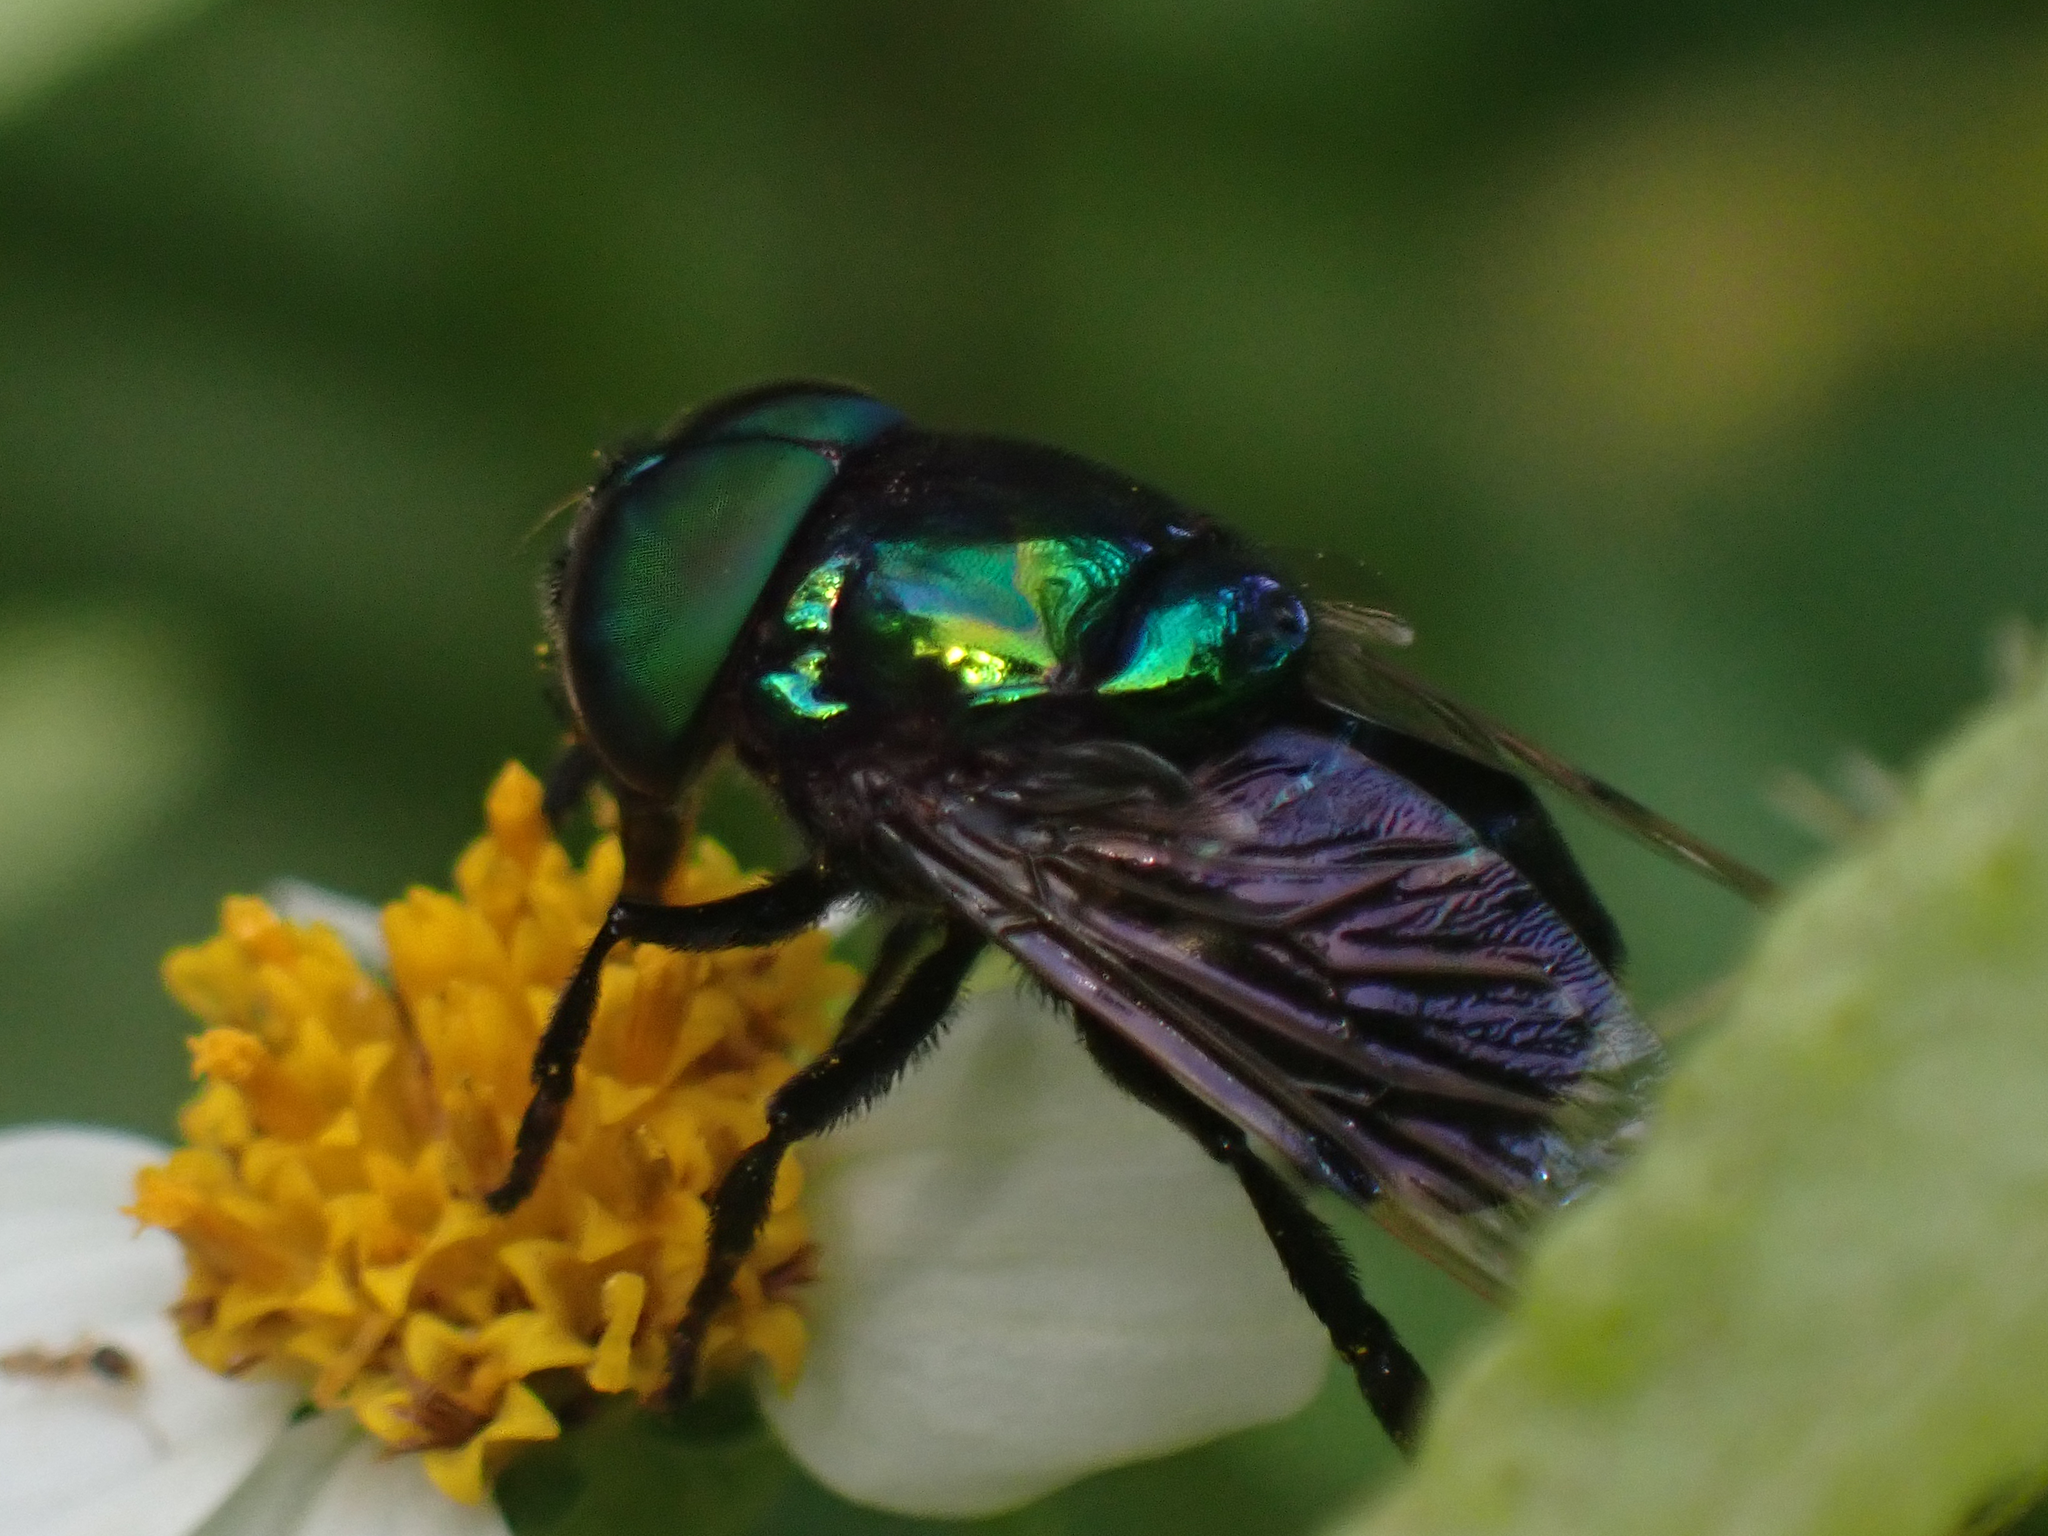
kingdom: Animalia
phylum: Arthropoda
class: Insecta
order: Diptera
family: Syrphidae
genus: Ornidia
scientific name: Ornidia obesa
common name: Syrphid fly
